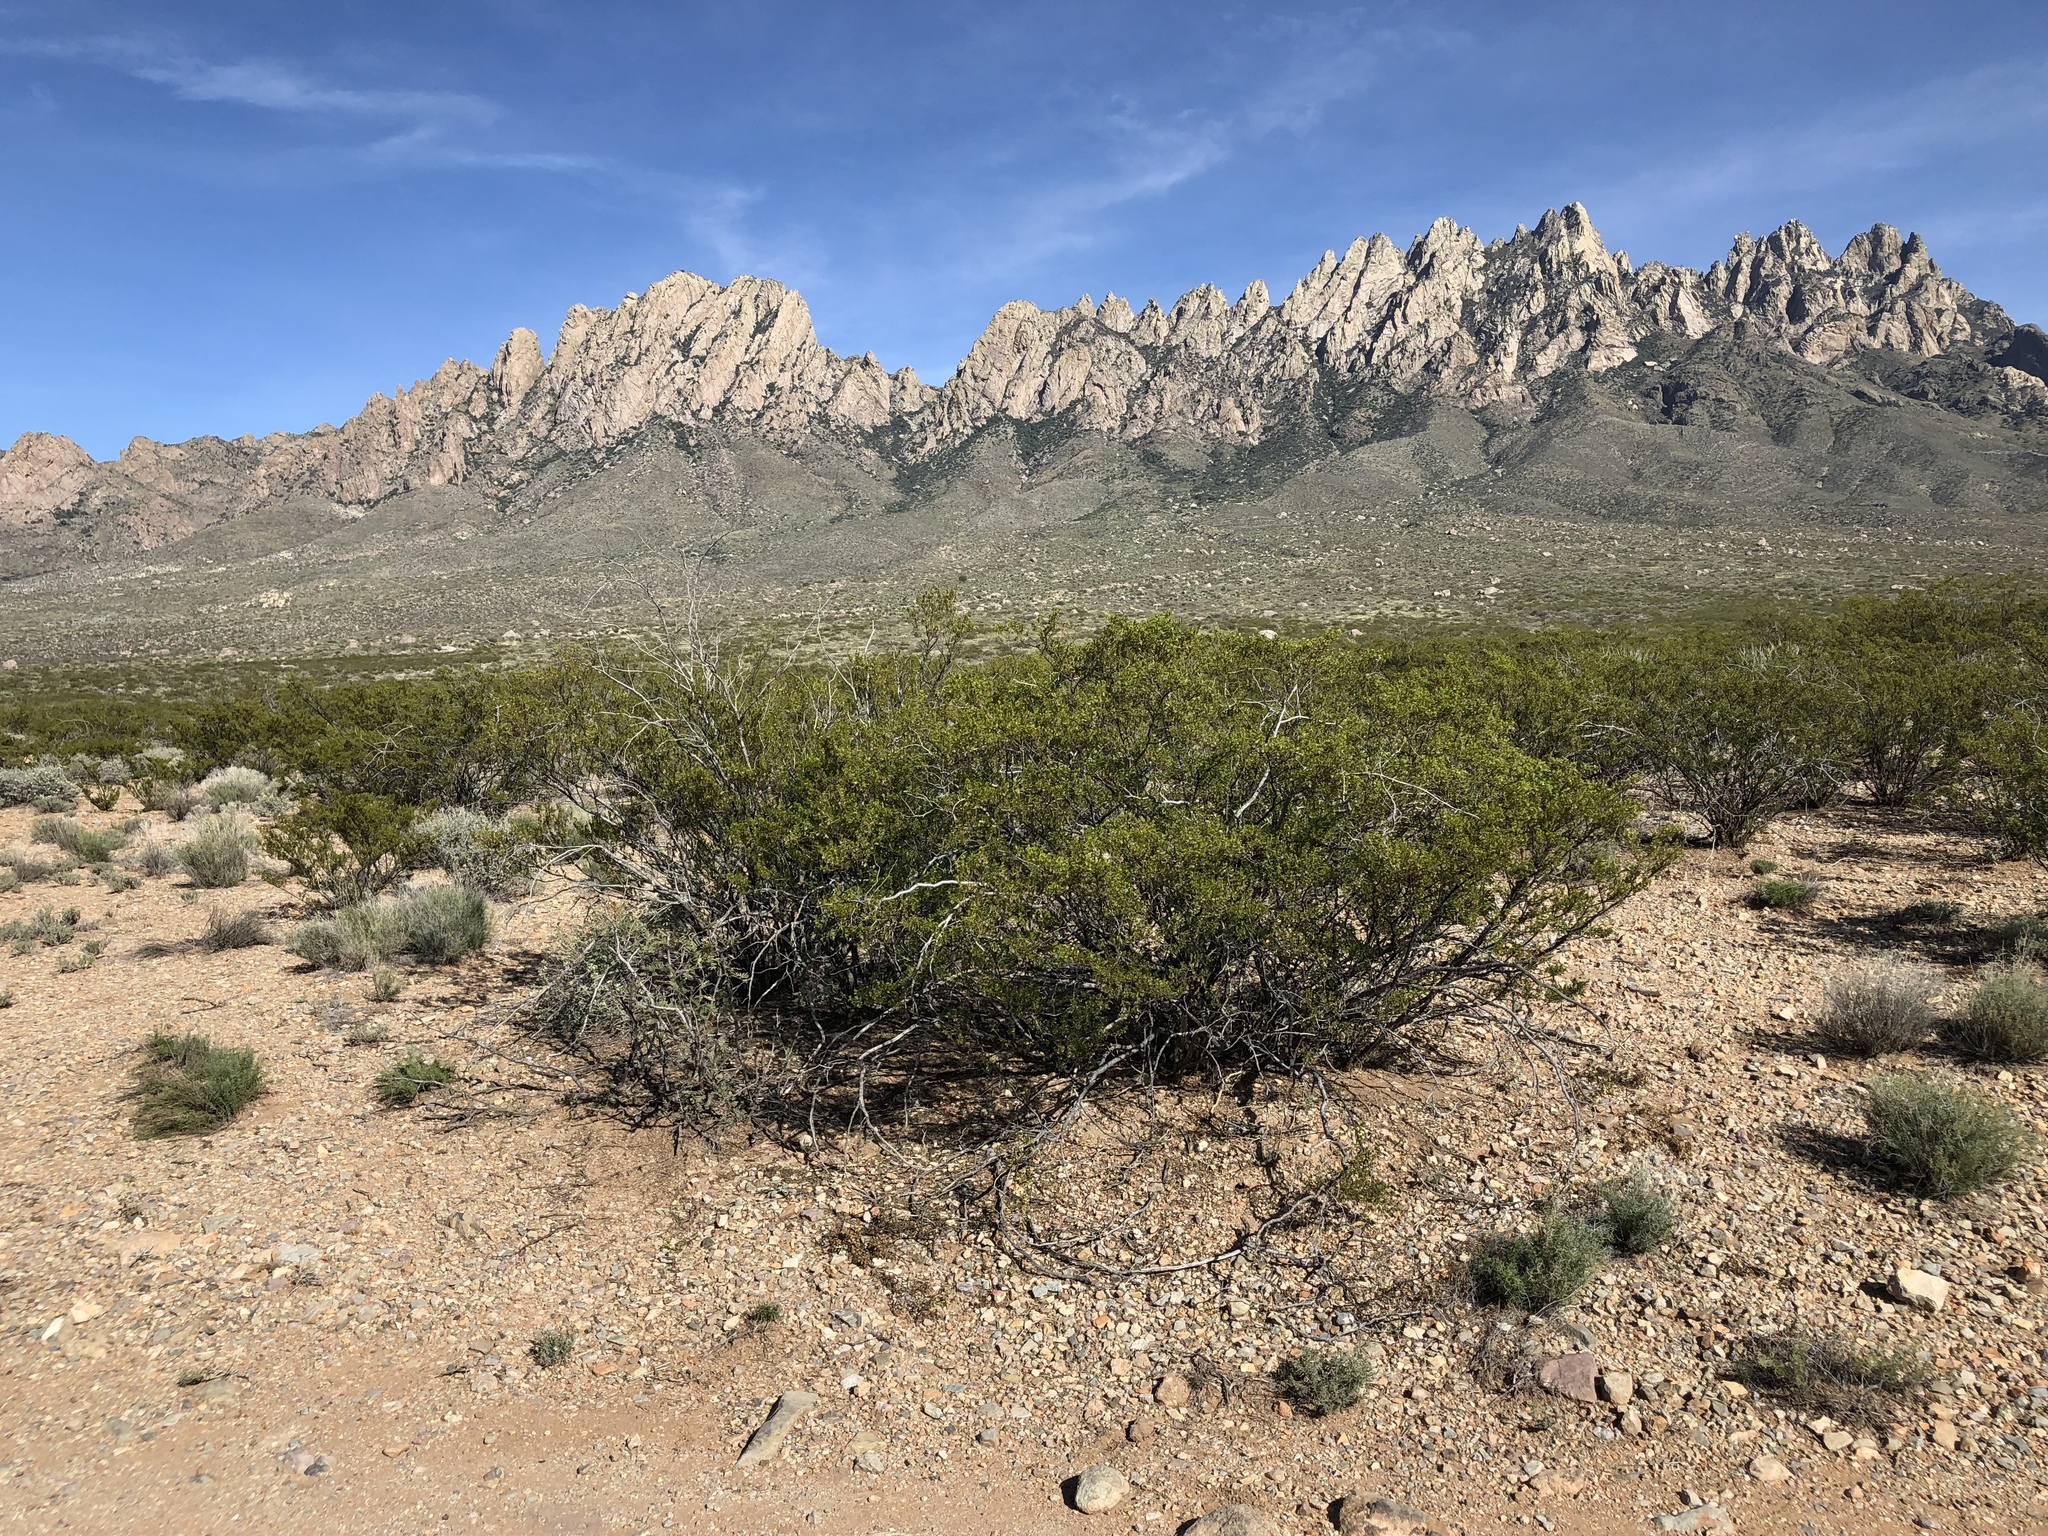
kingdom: Plantae
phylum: Tracheophyta
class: Magnoliopsida
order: Zygophyllales
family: Zygophyllaceae
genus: Larrea
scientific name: Larrea tridentata
